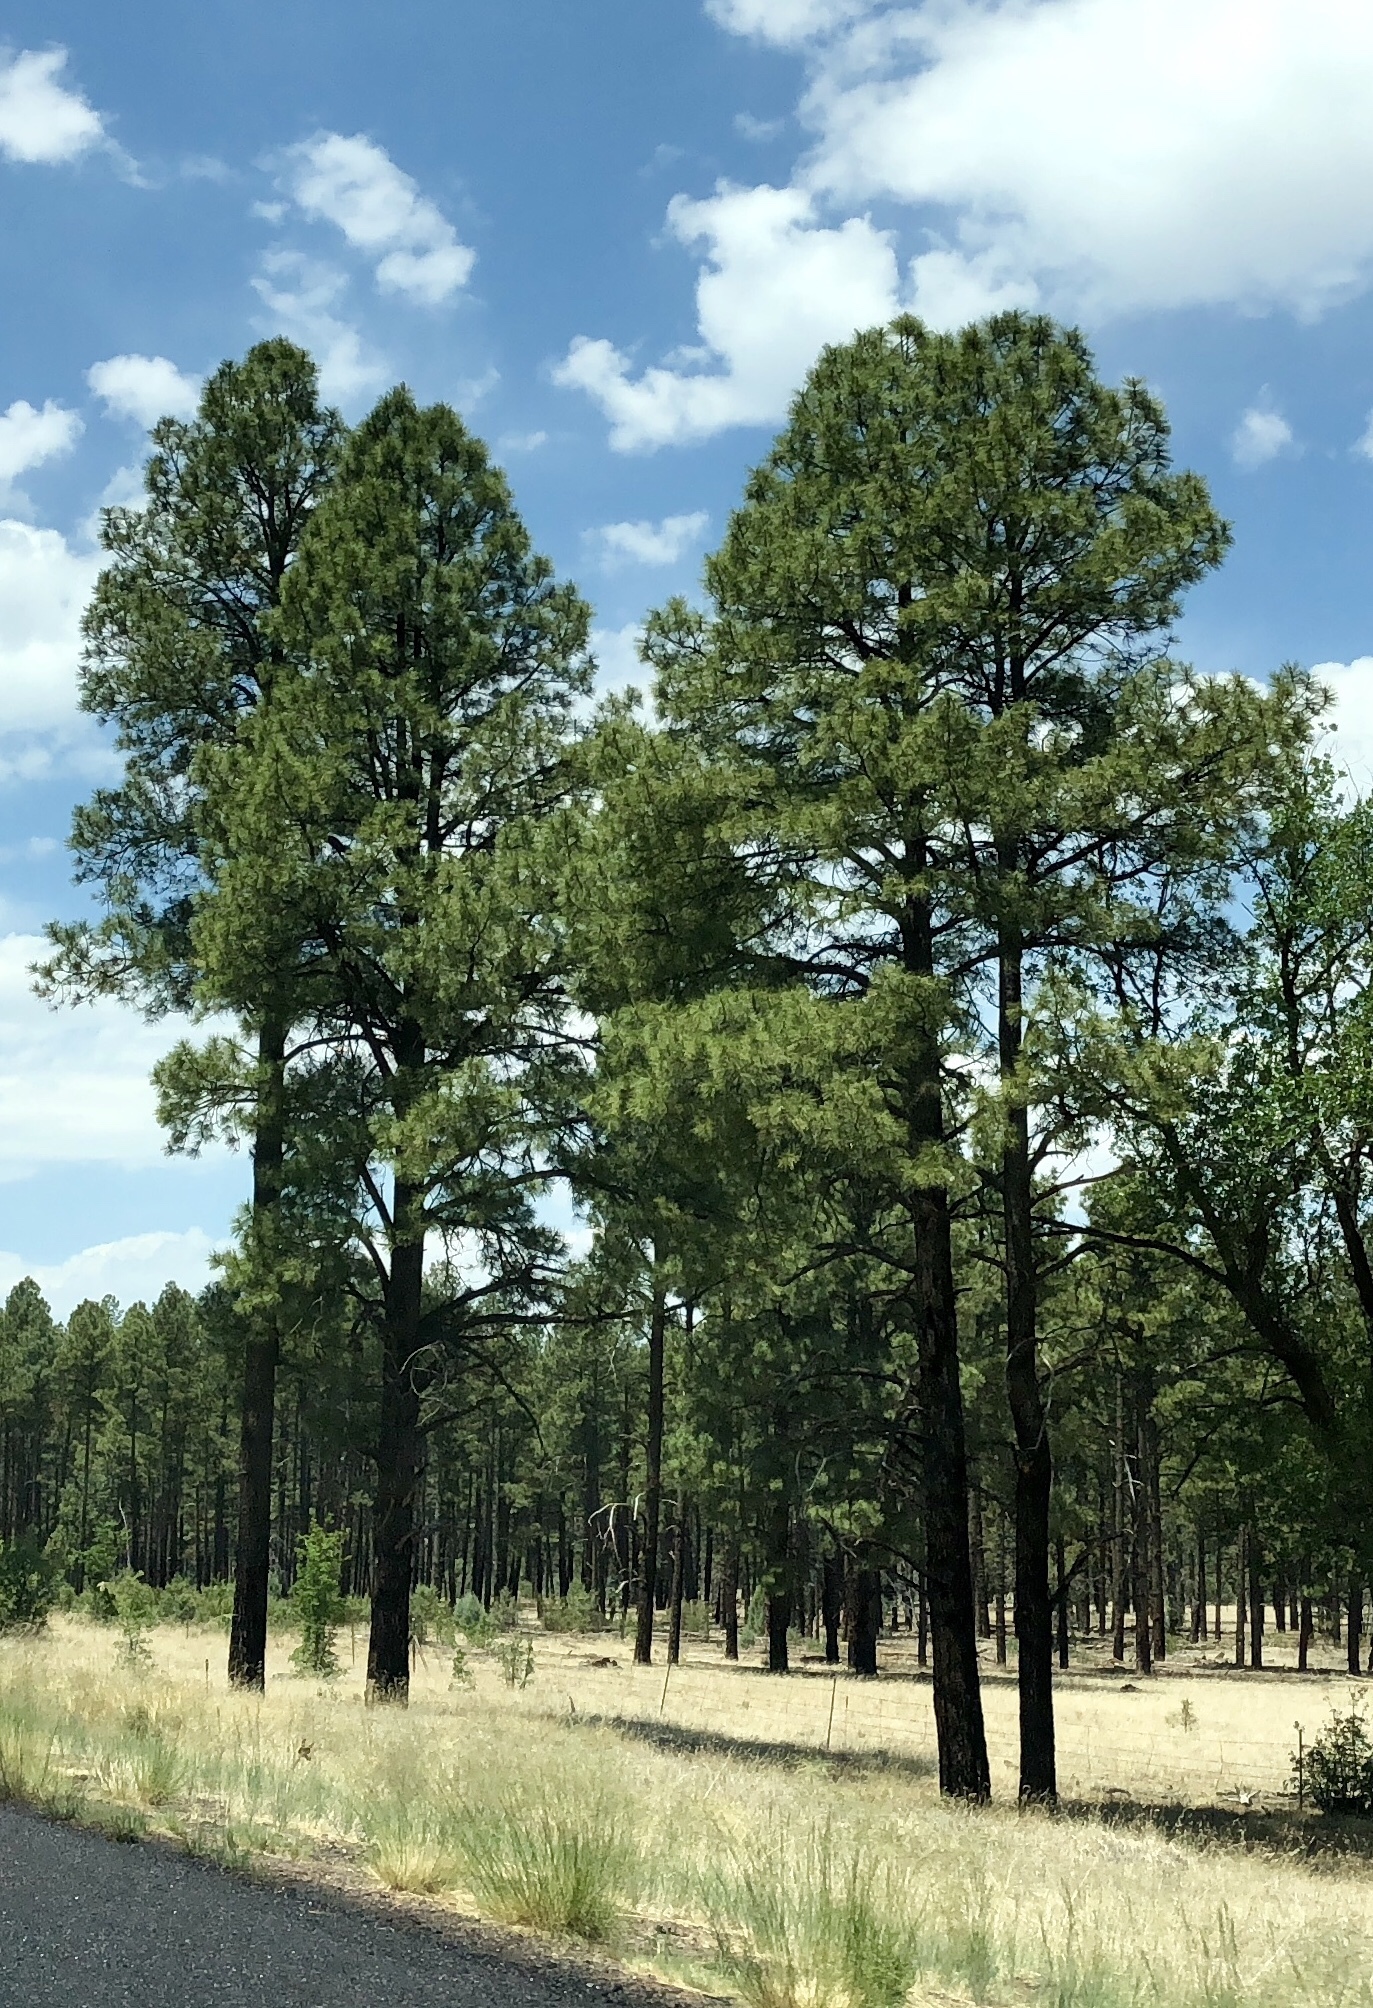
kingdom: Plantae
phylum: Tracheophyta
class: Pinopsida
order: Pinales
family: Pinaceae
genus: Pinus
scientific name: Pinus ponderosa
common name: Western yellow-pine
